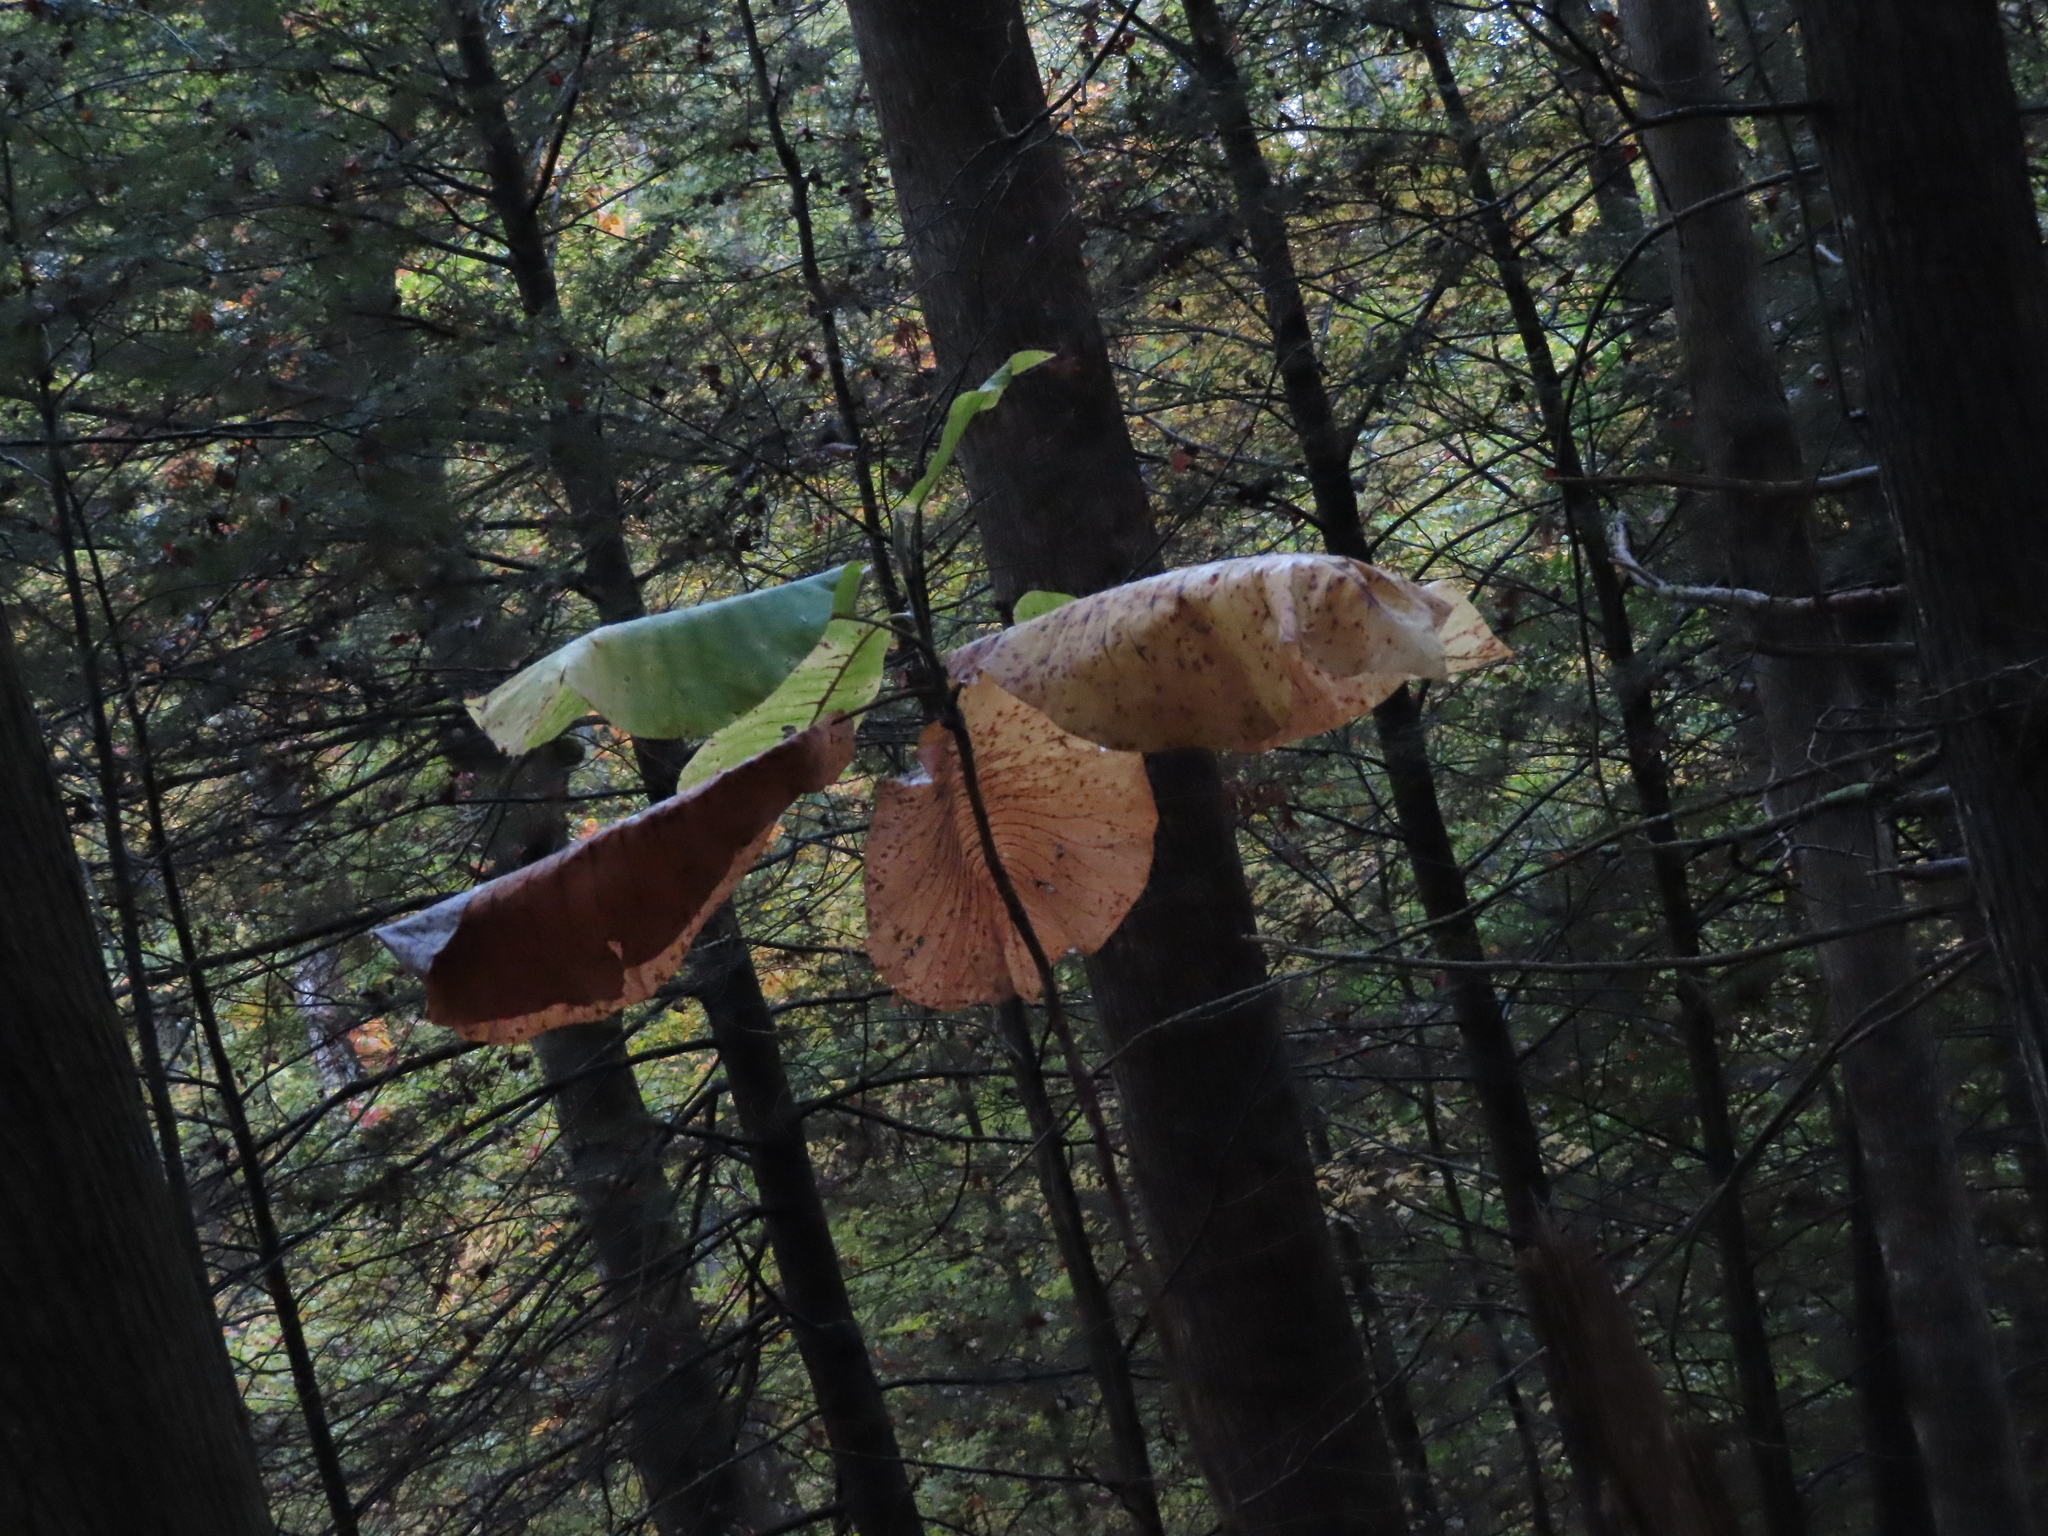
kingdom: Plantae
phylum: Tracheophyta
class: Magnoliopsida
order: Magnoliales
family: Magnoliaceae
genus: Magnolia
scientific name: Magnolia macrophylla
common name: Big-leaf magnolia
